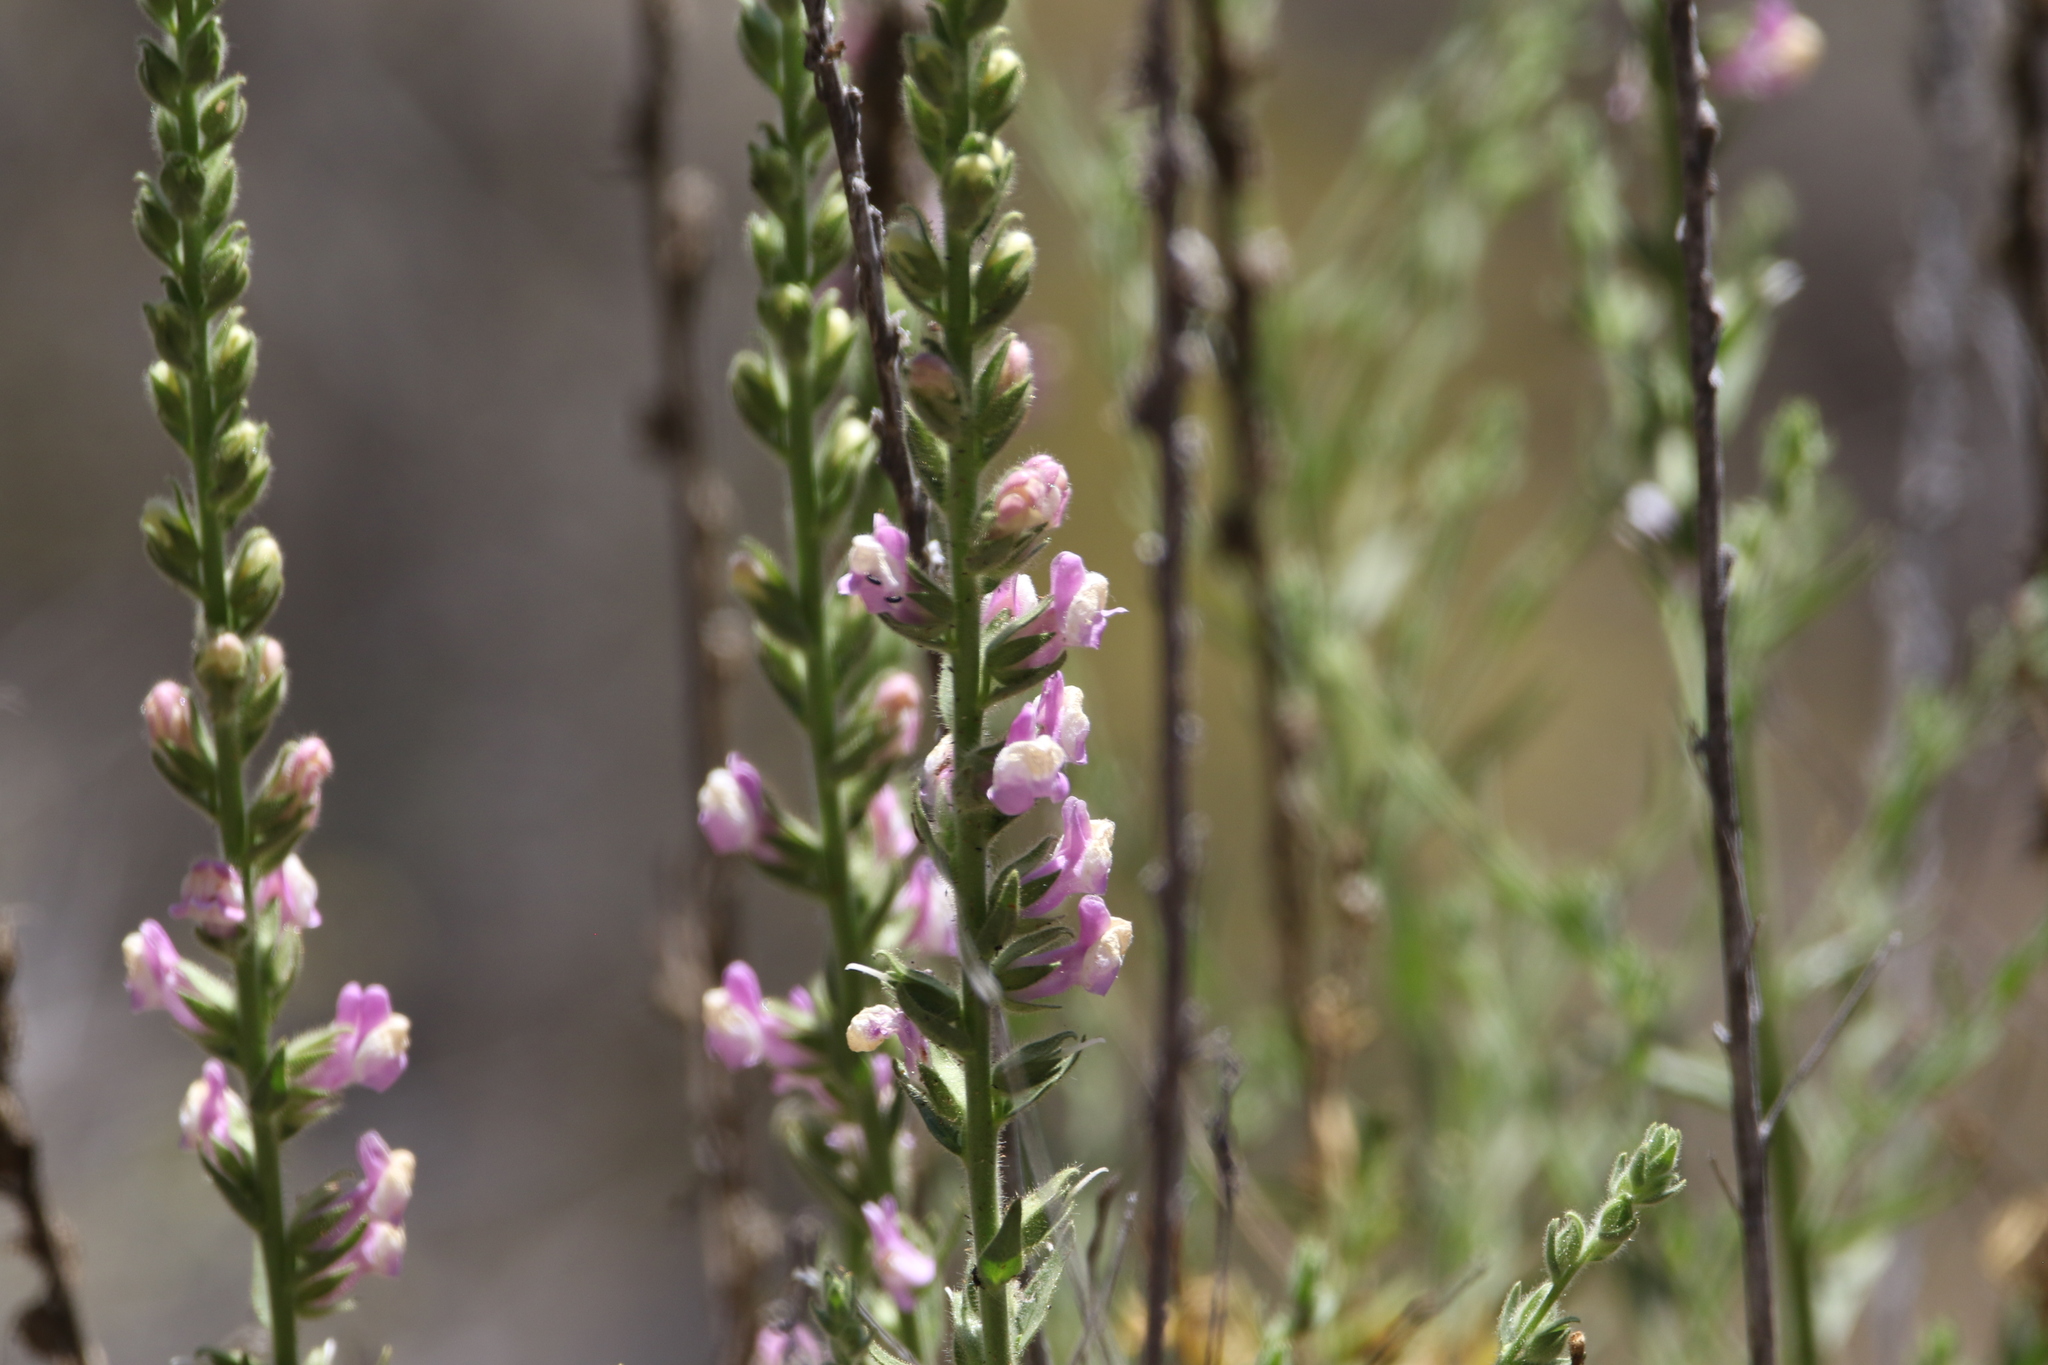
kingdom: Plantae
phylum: Tracheophyta
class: Magnoliopsida
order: Lamiales
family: Plantaginaceae
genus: Sairocarpus
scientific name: Sairocarpus multiflorus
